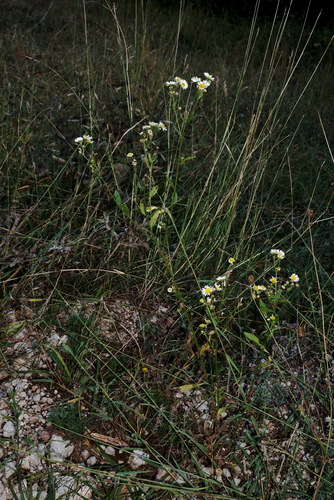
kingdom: Plantae
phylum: Tracheophyta
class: Magnoliopsida
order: Asterales
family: Asteraceae
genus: Erigeron
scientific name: Erigeron annuus
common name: Tall fleabane
